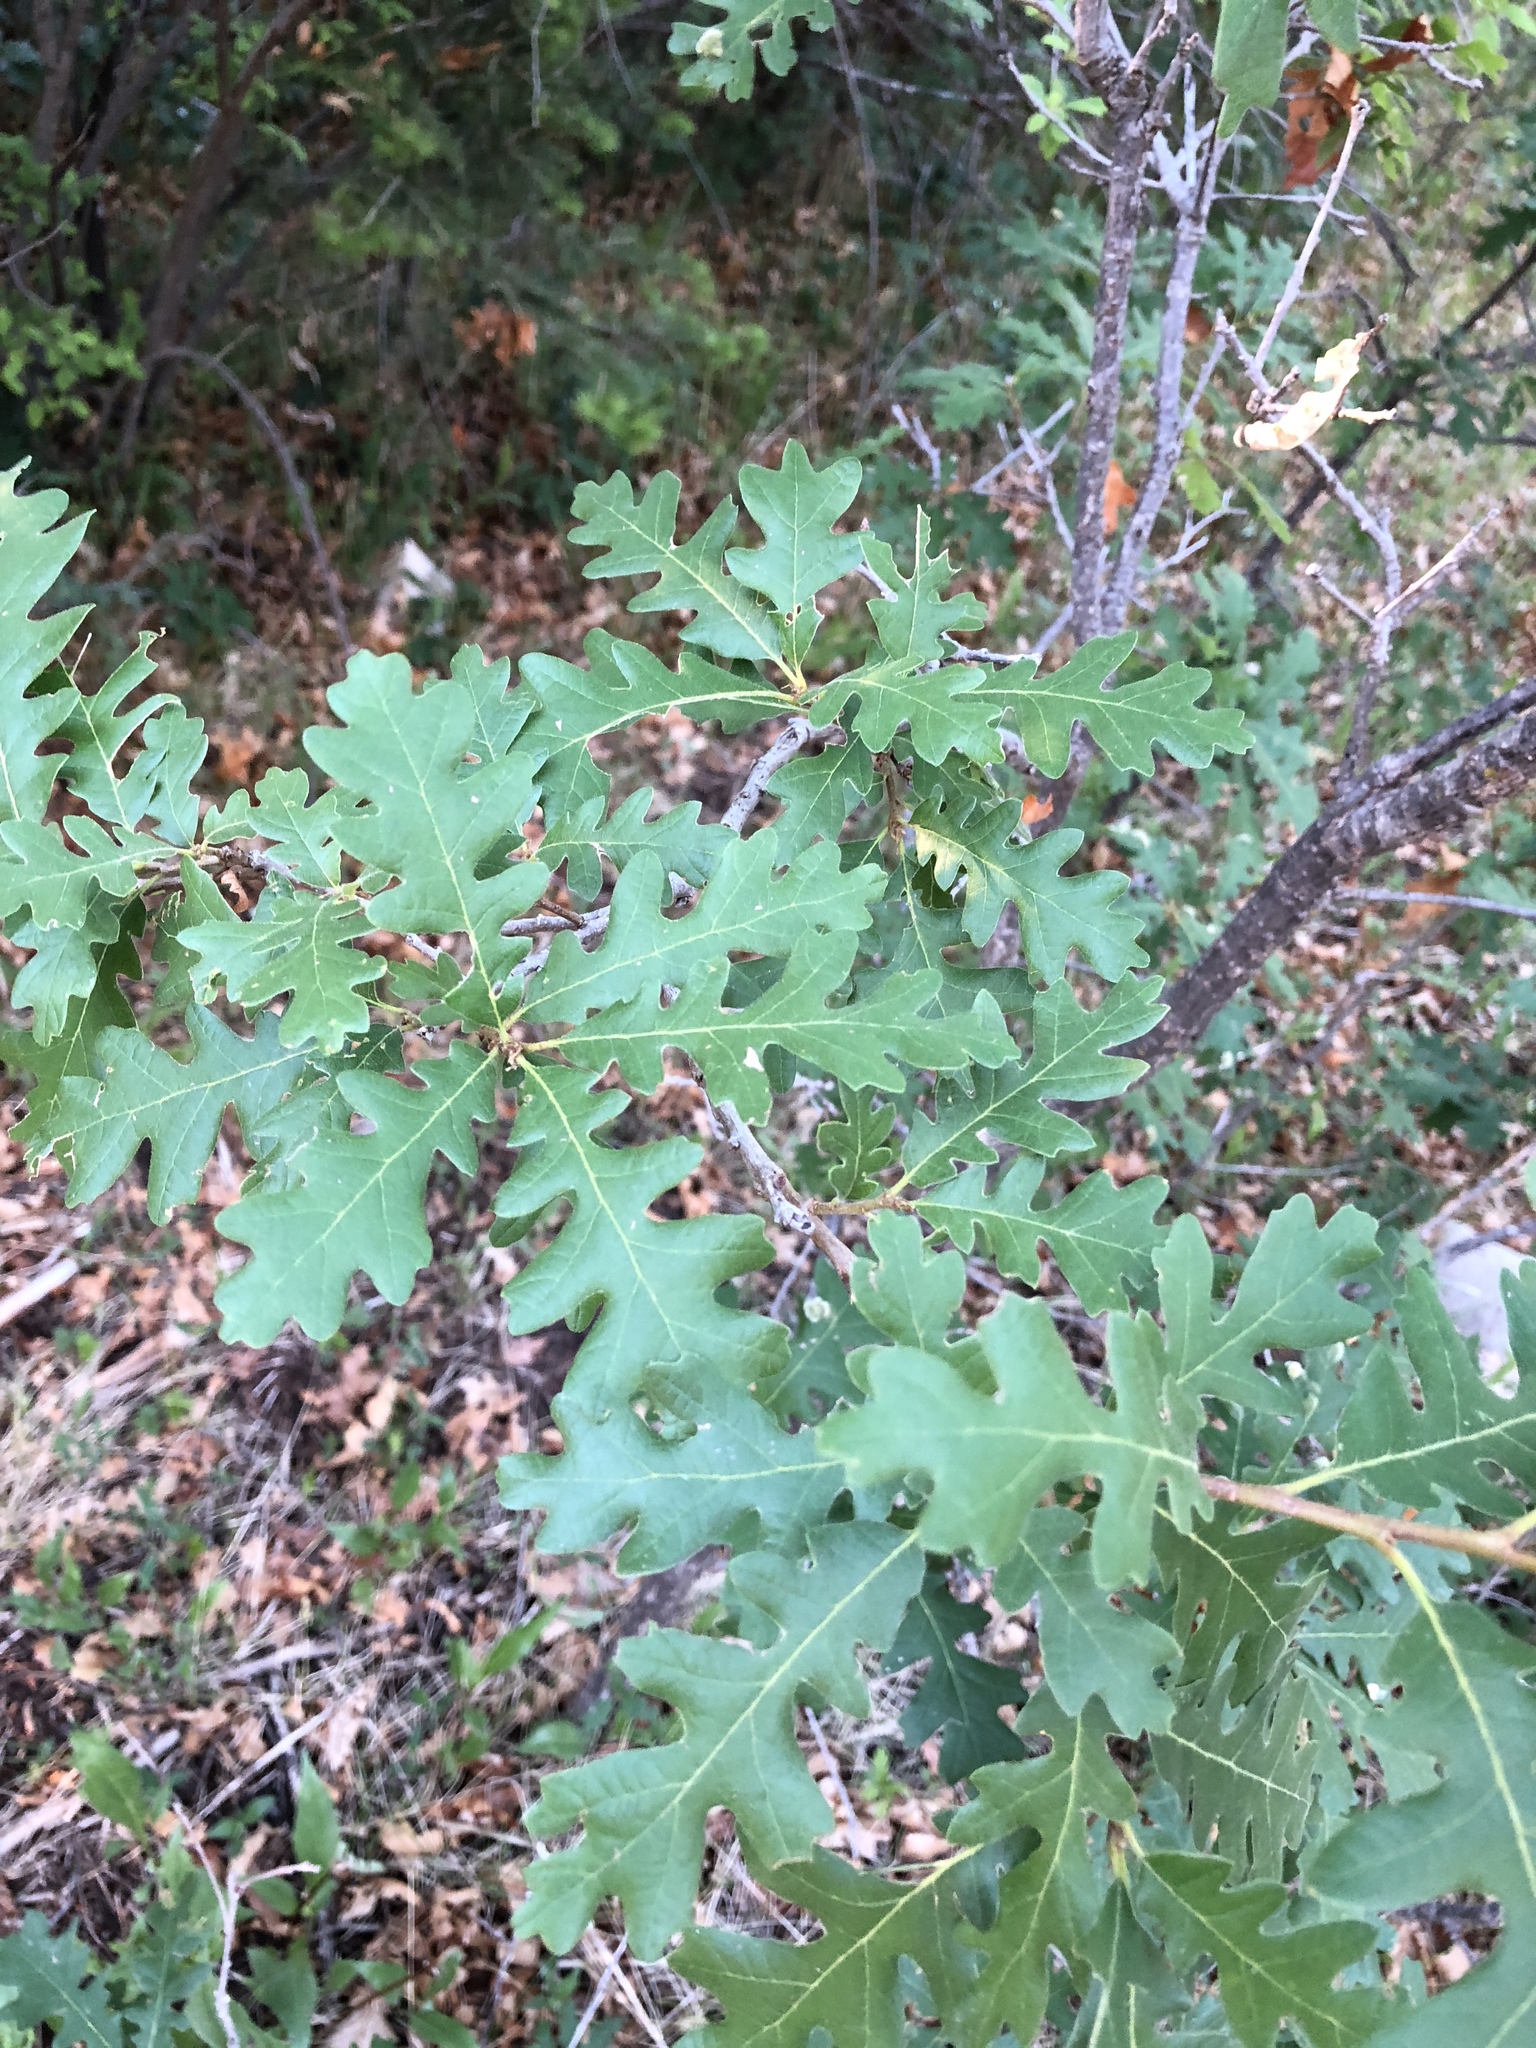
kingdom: Plantae
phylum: Tracheophyta
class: Magnoliopsida
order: Fagales
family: Fagaceae
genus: Quercus
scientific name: Quercus gambelii
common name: Gambel oak
